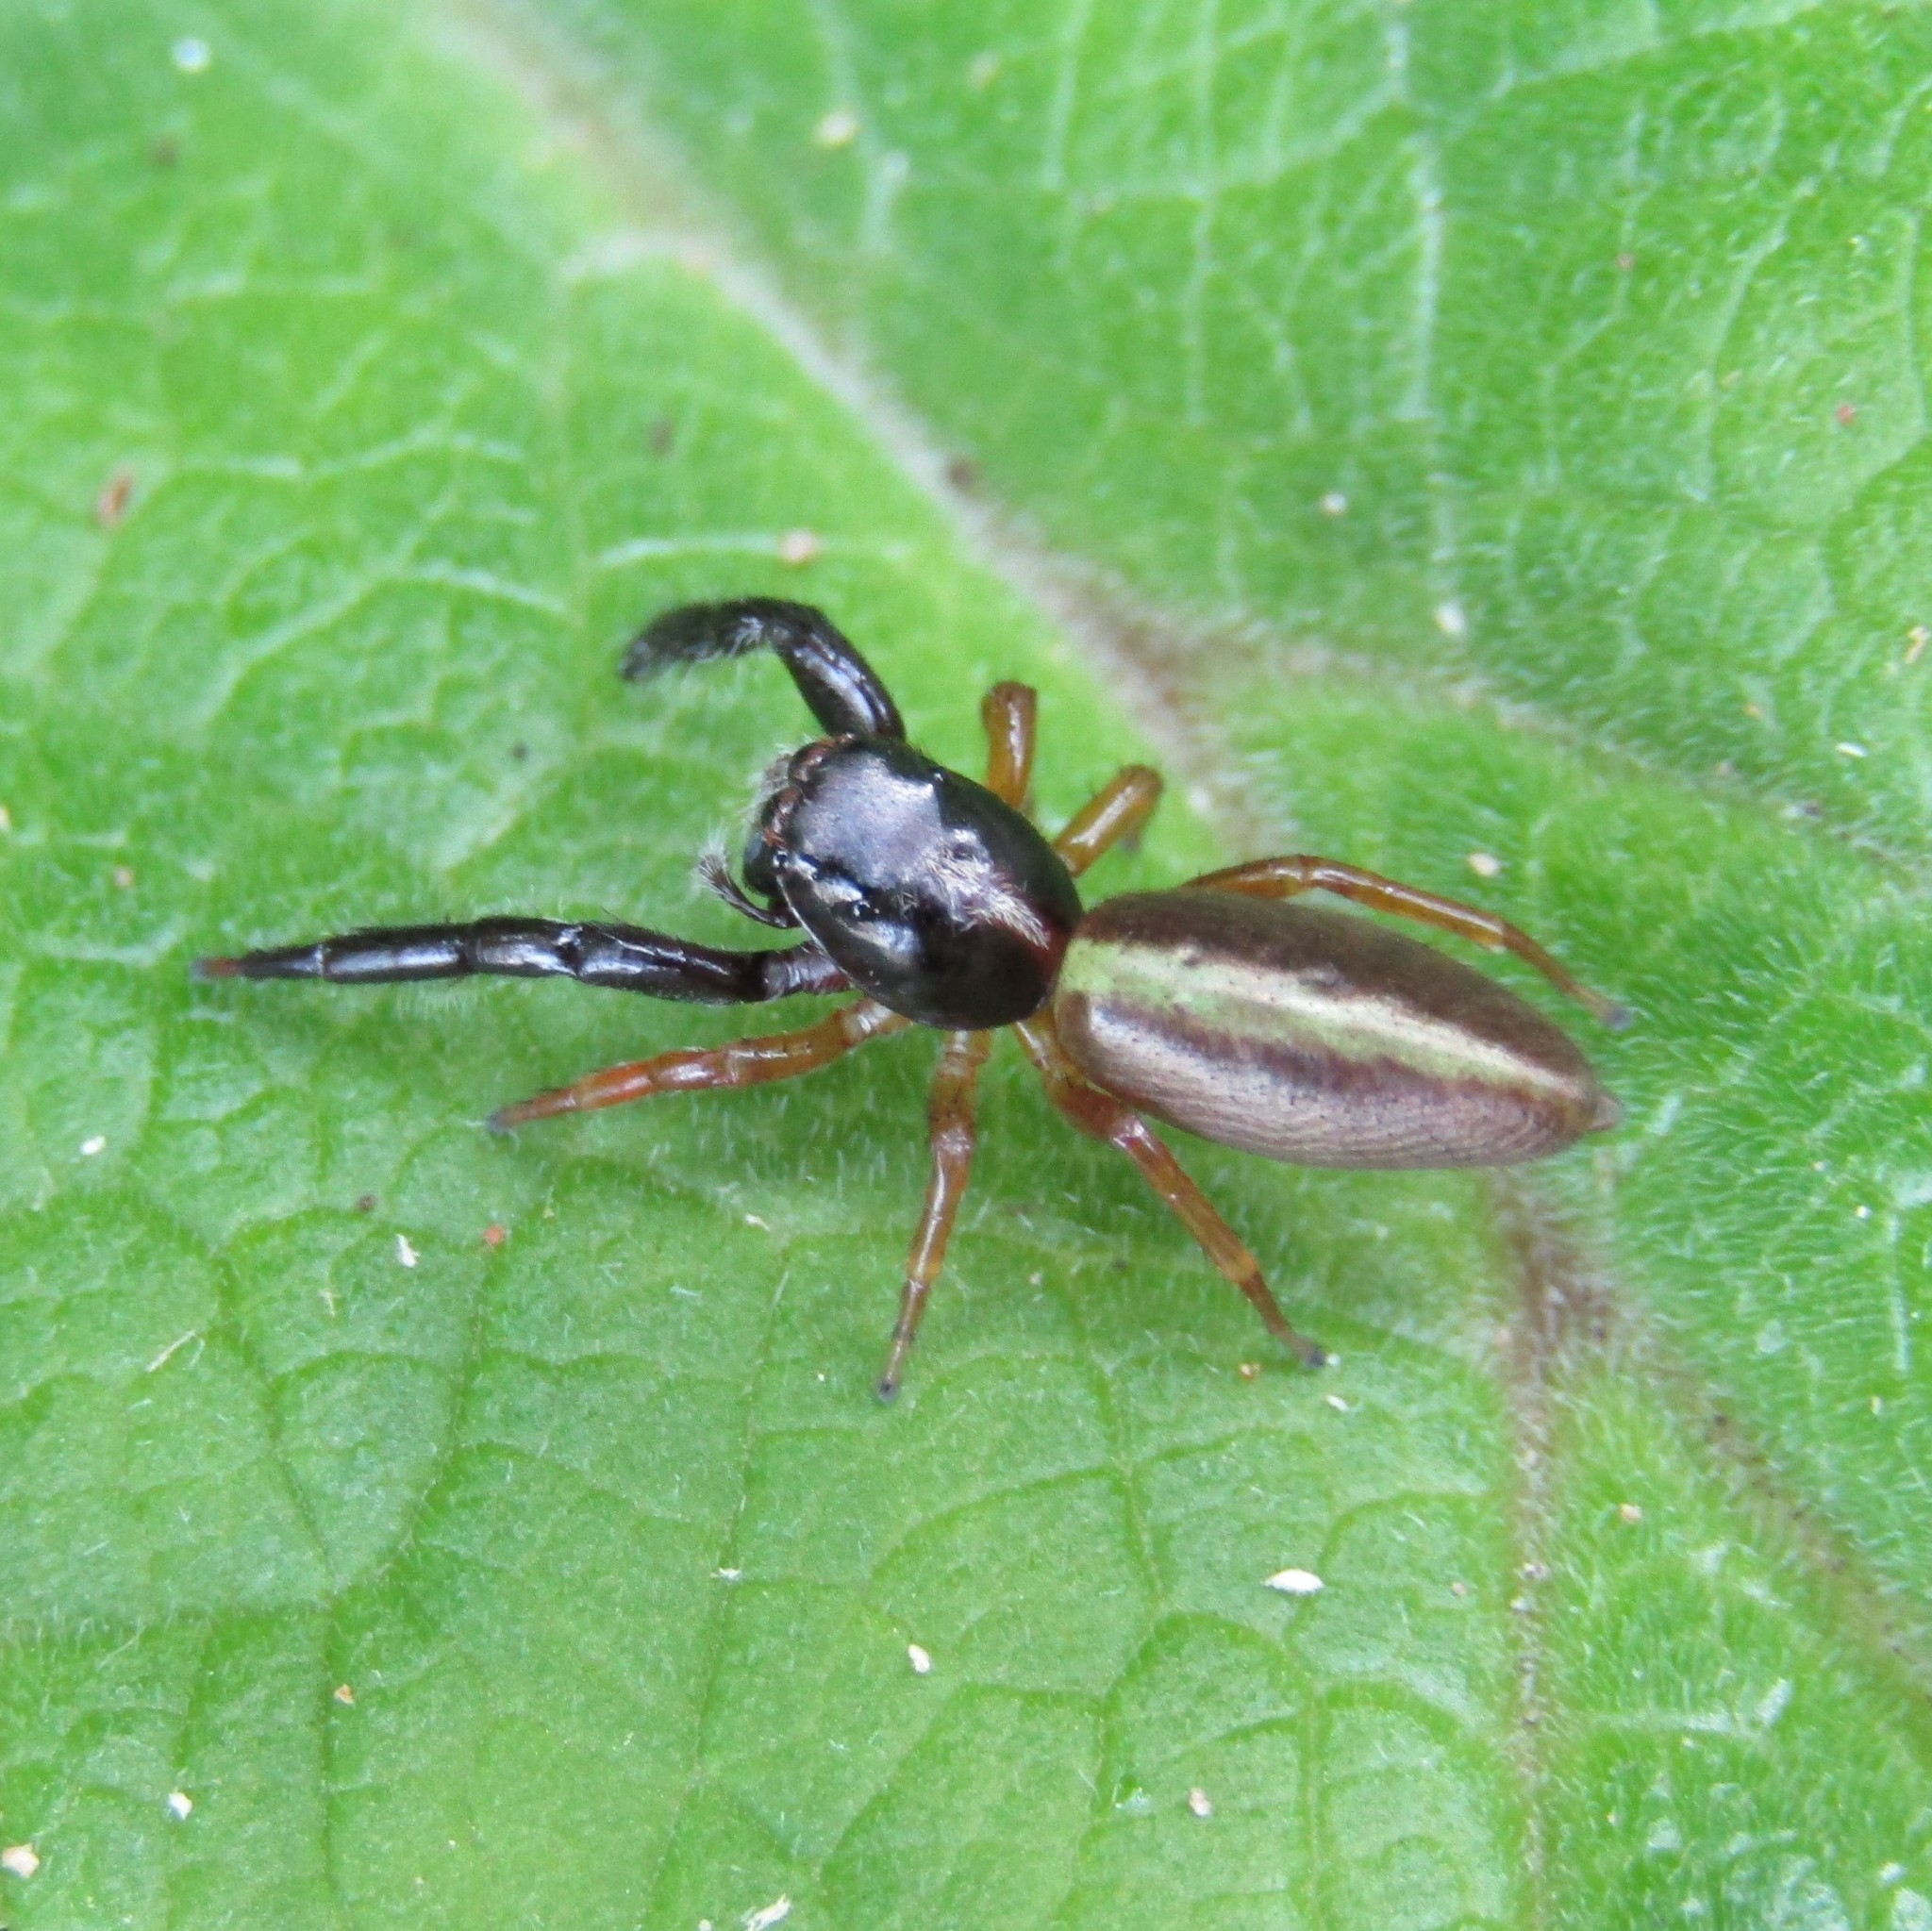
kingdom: Animalia
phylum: Arthropoda
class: Arachnida
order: Araneae
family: Salticidae
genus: Trite
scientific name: Trite planiceps
